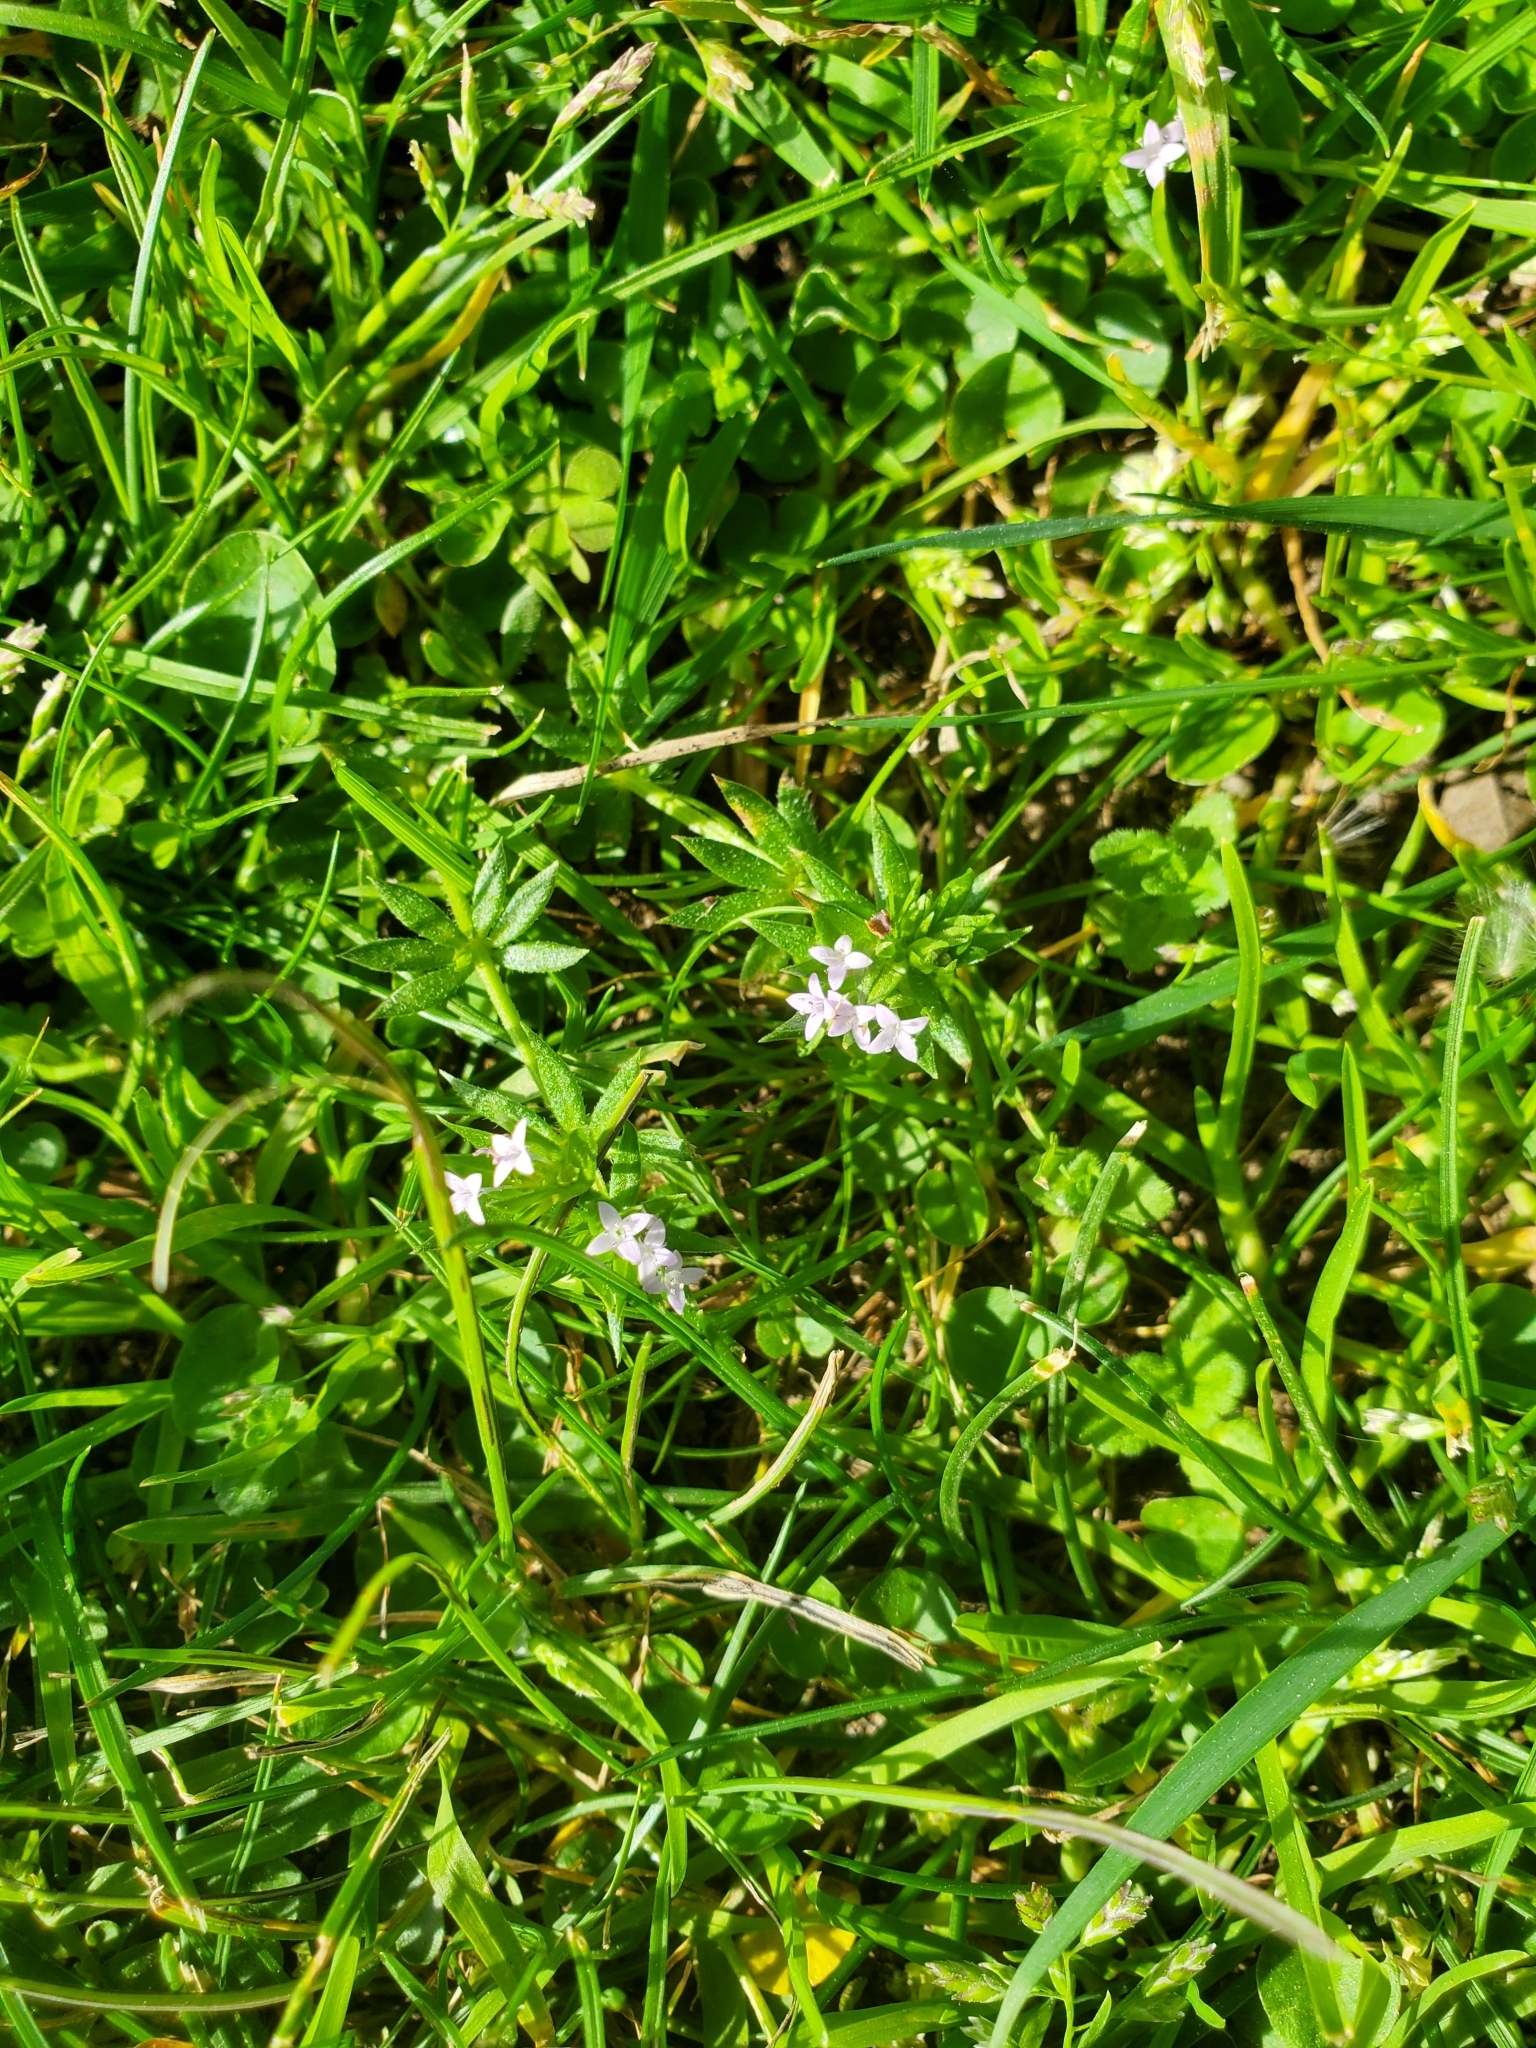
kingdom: Plantae
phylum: Tracheophyta
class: Magnoliopsida
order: Gentianales
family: Rubiaceae
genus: Sherardia
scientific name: Sherardia arvensis
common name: Field madder
